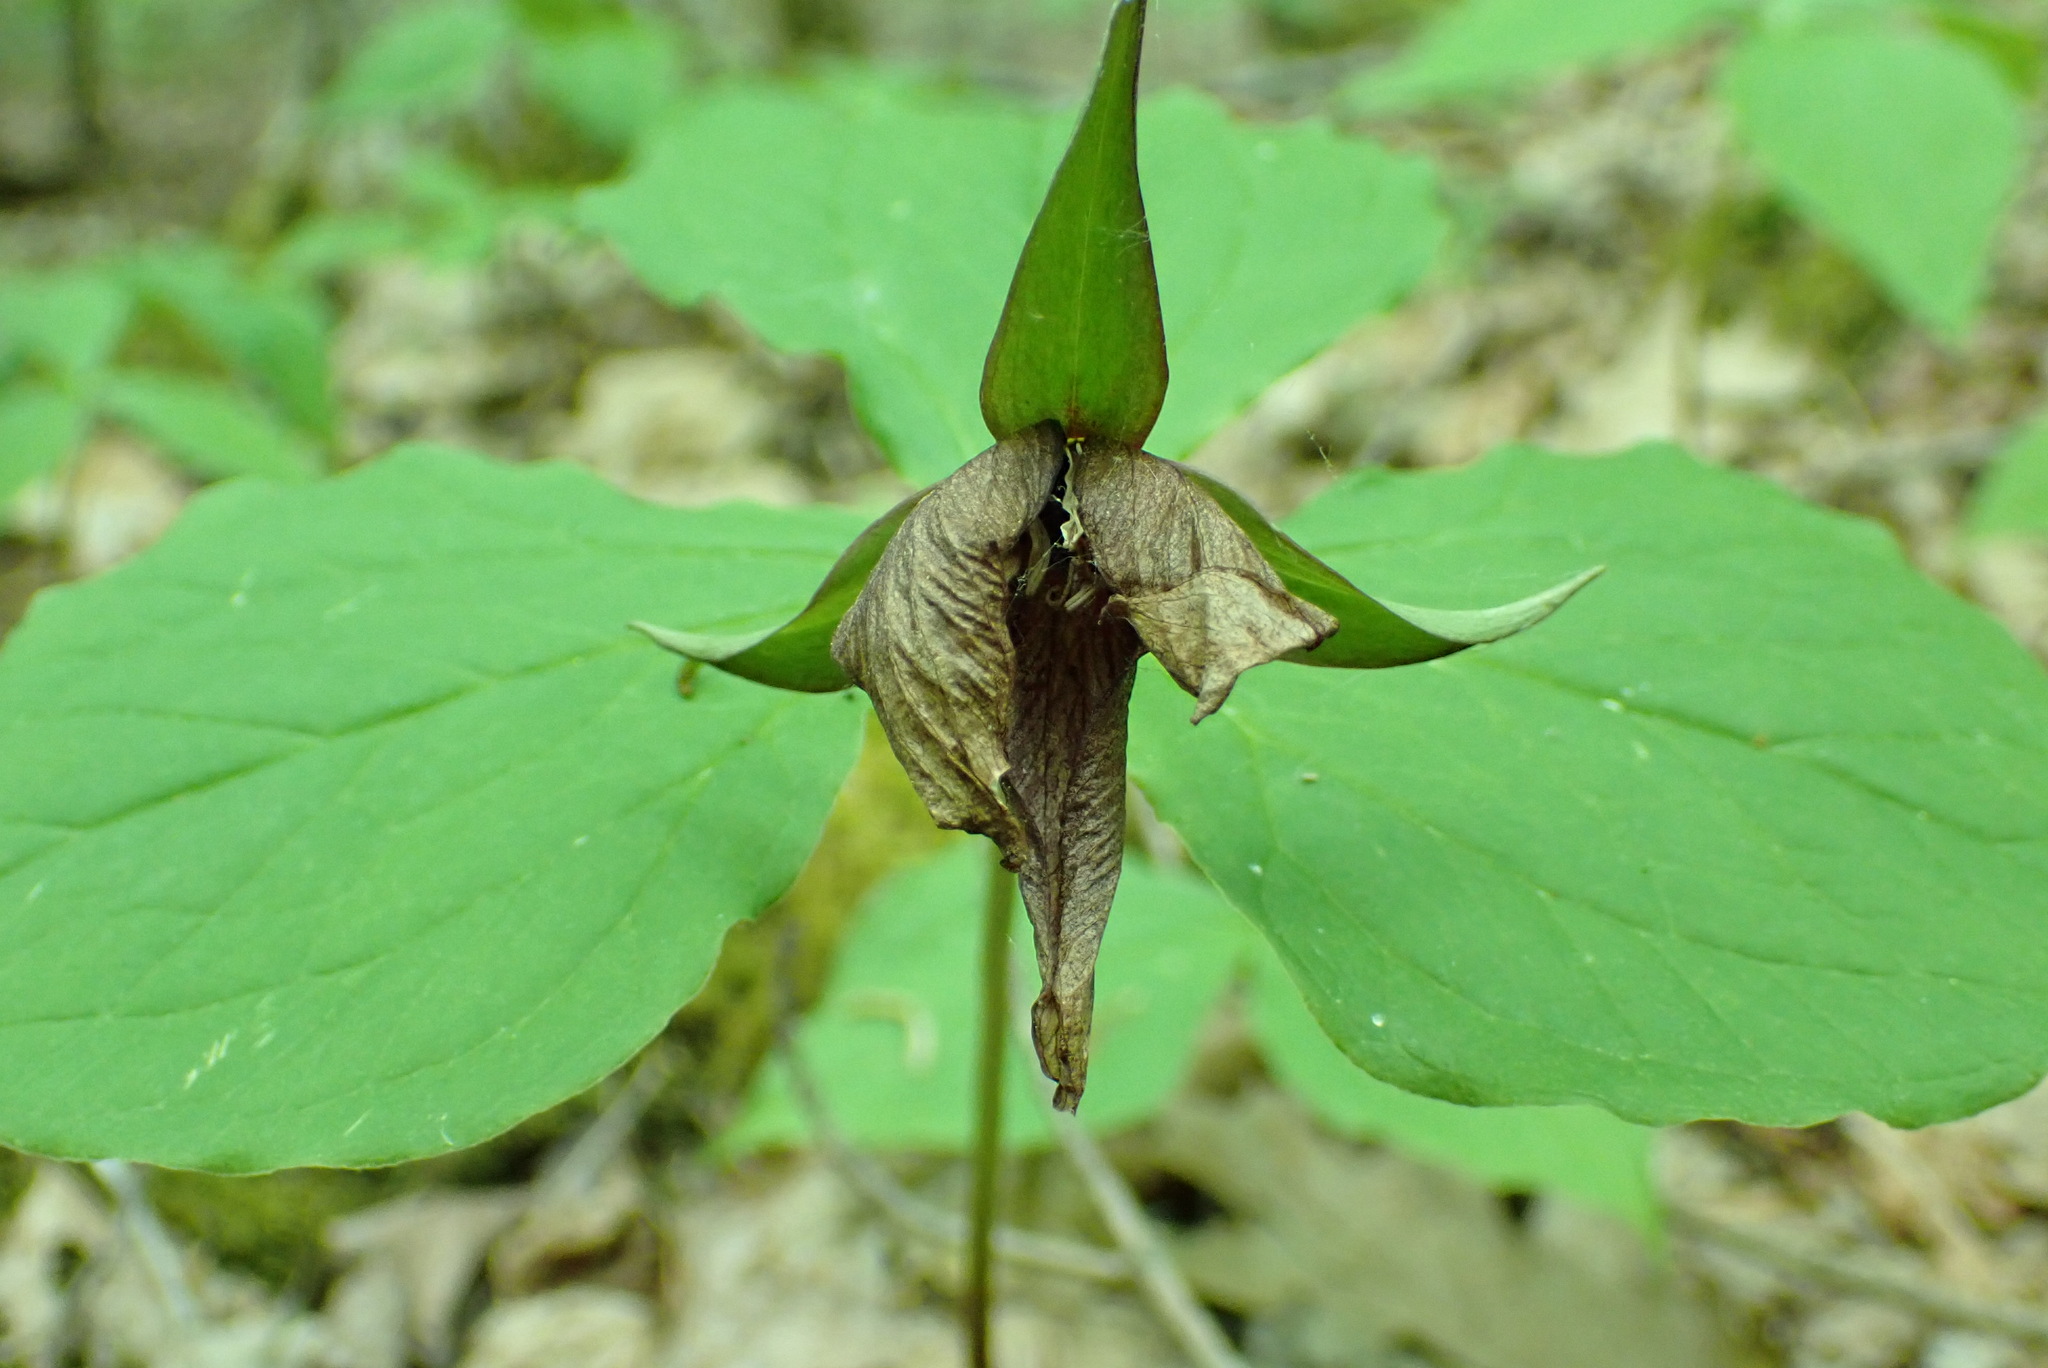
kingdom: Plantae
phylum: Tracheophyta
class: Liliopsida
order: Liliales
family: Melanthiaceae
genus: Trillium
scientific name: Trillium erectum
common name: Purple trillium
